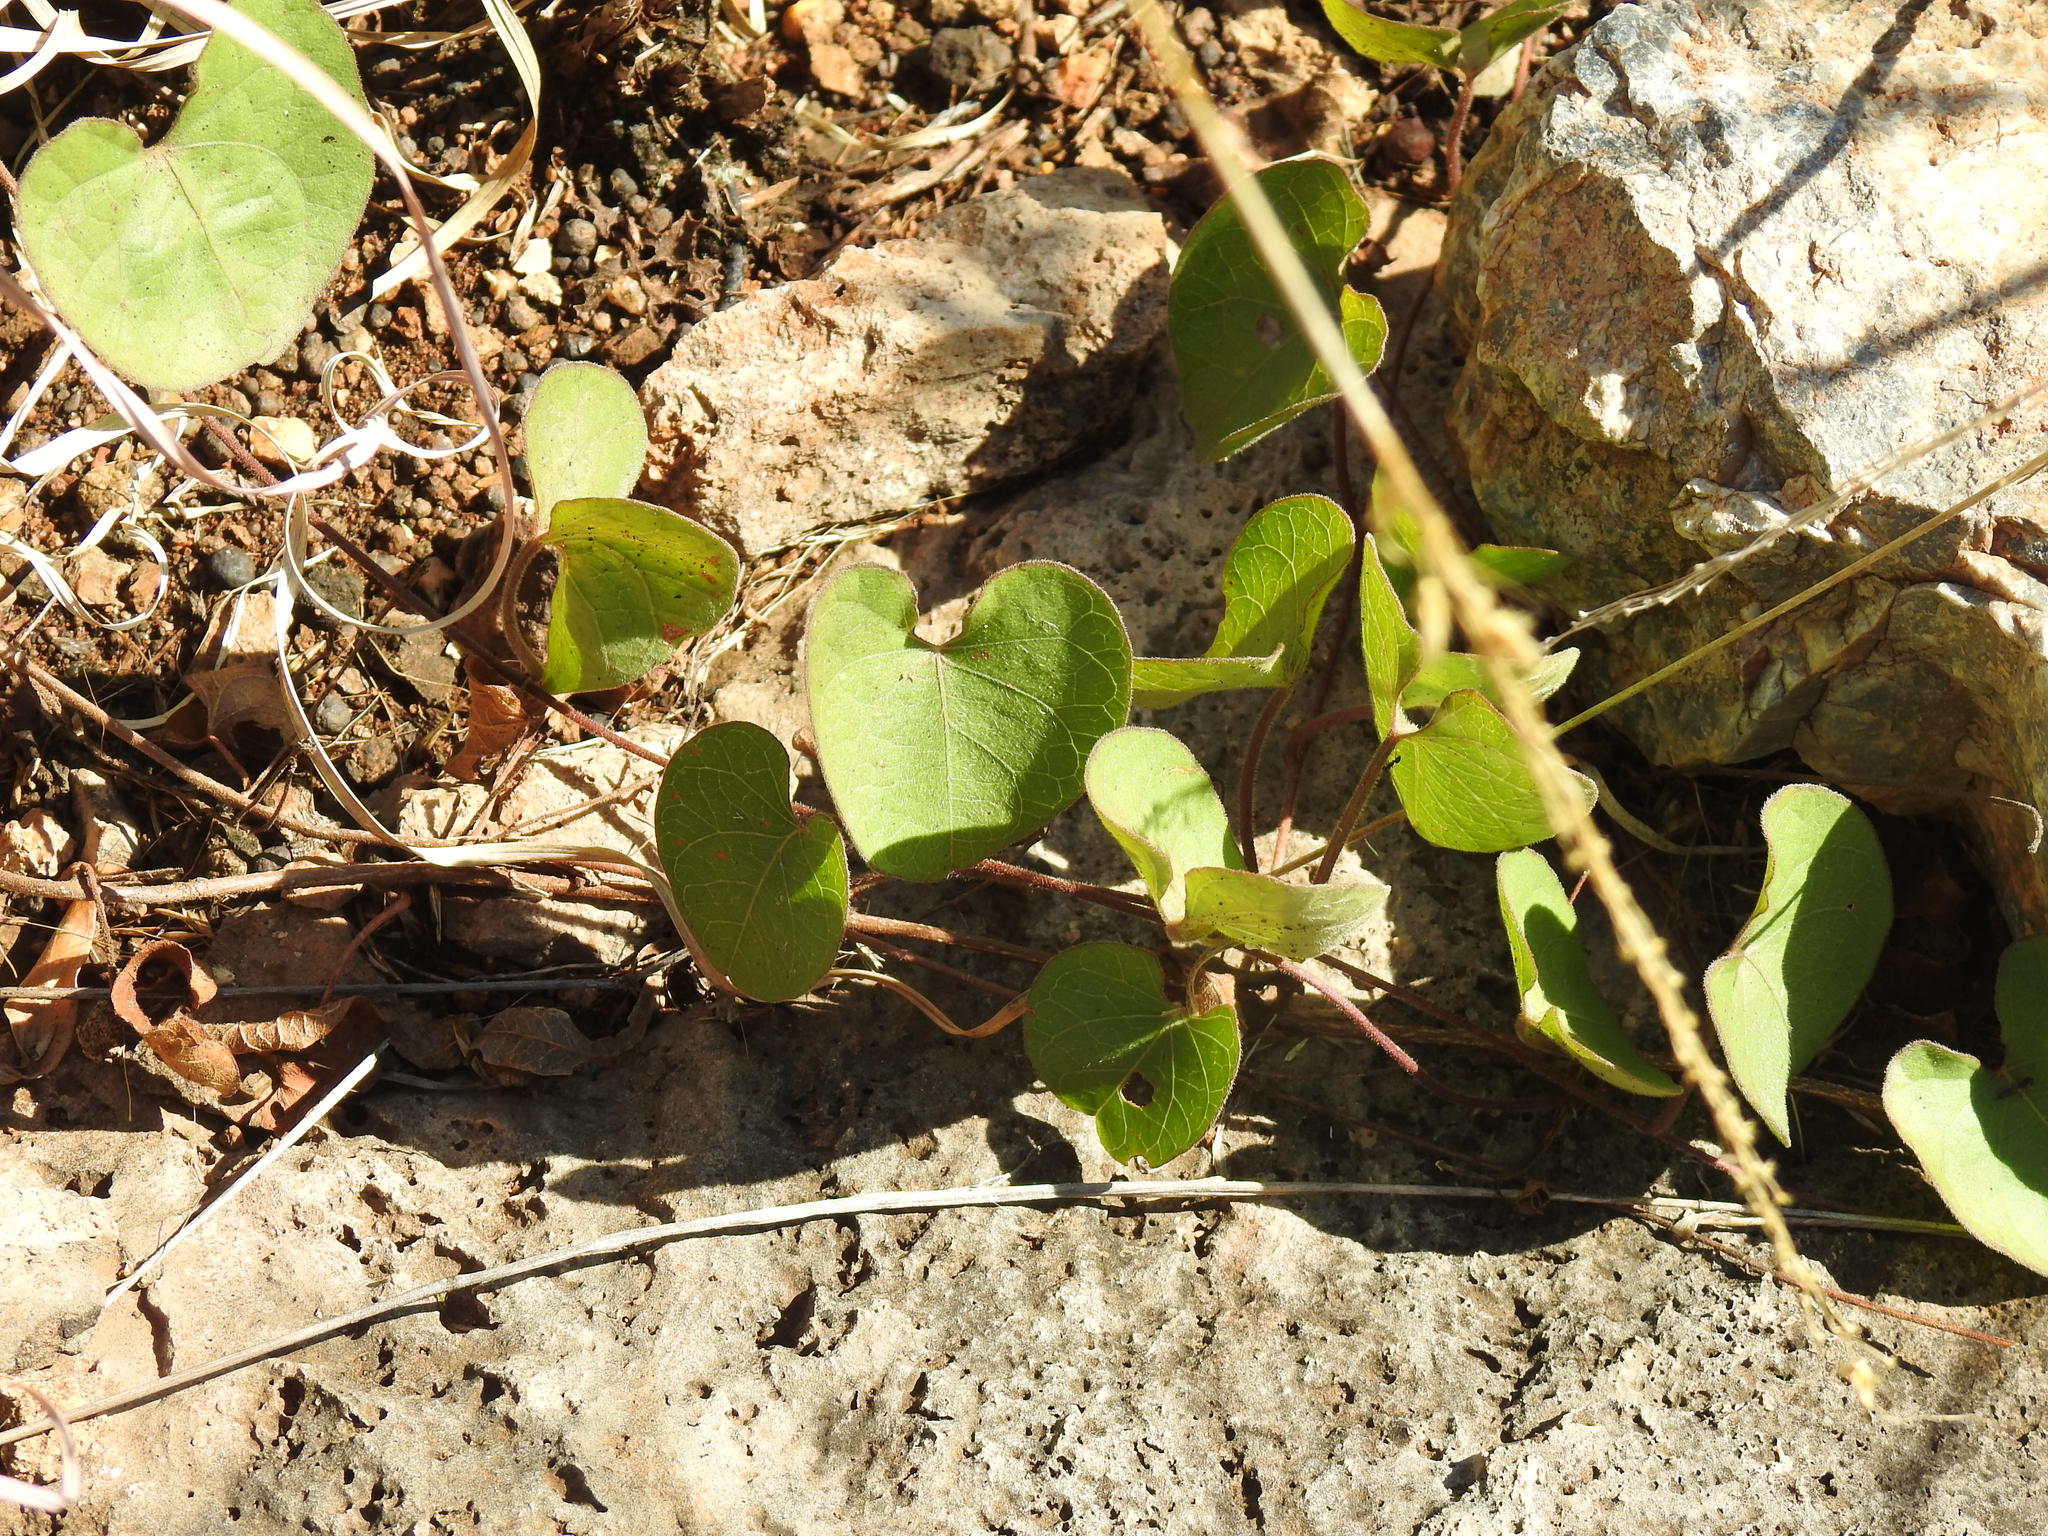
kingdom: Plantae
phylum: Tracheophyta
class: Magnoliopsida
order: Solanales
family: Convolvulaceae
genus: Ipomoea
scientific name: Ipomoea bathycolpos
